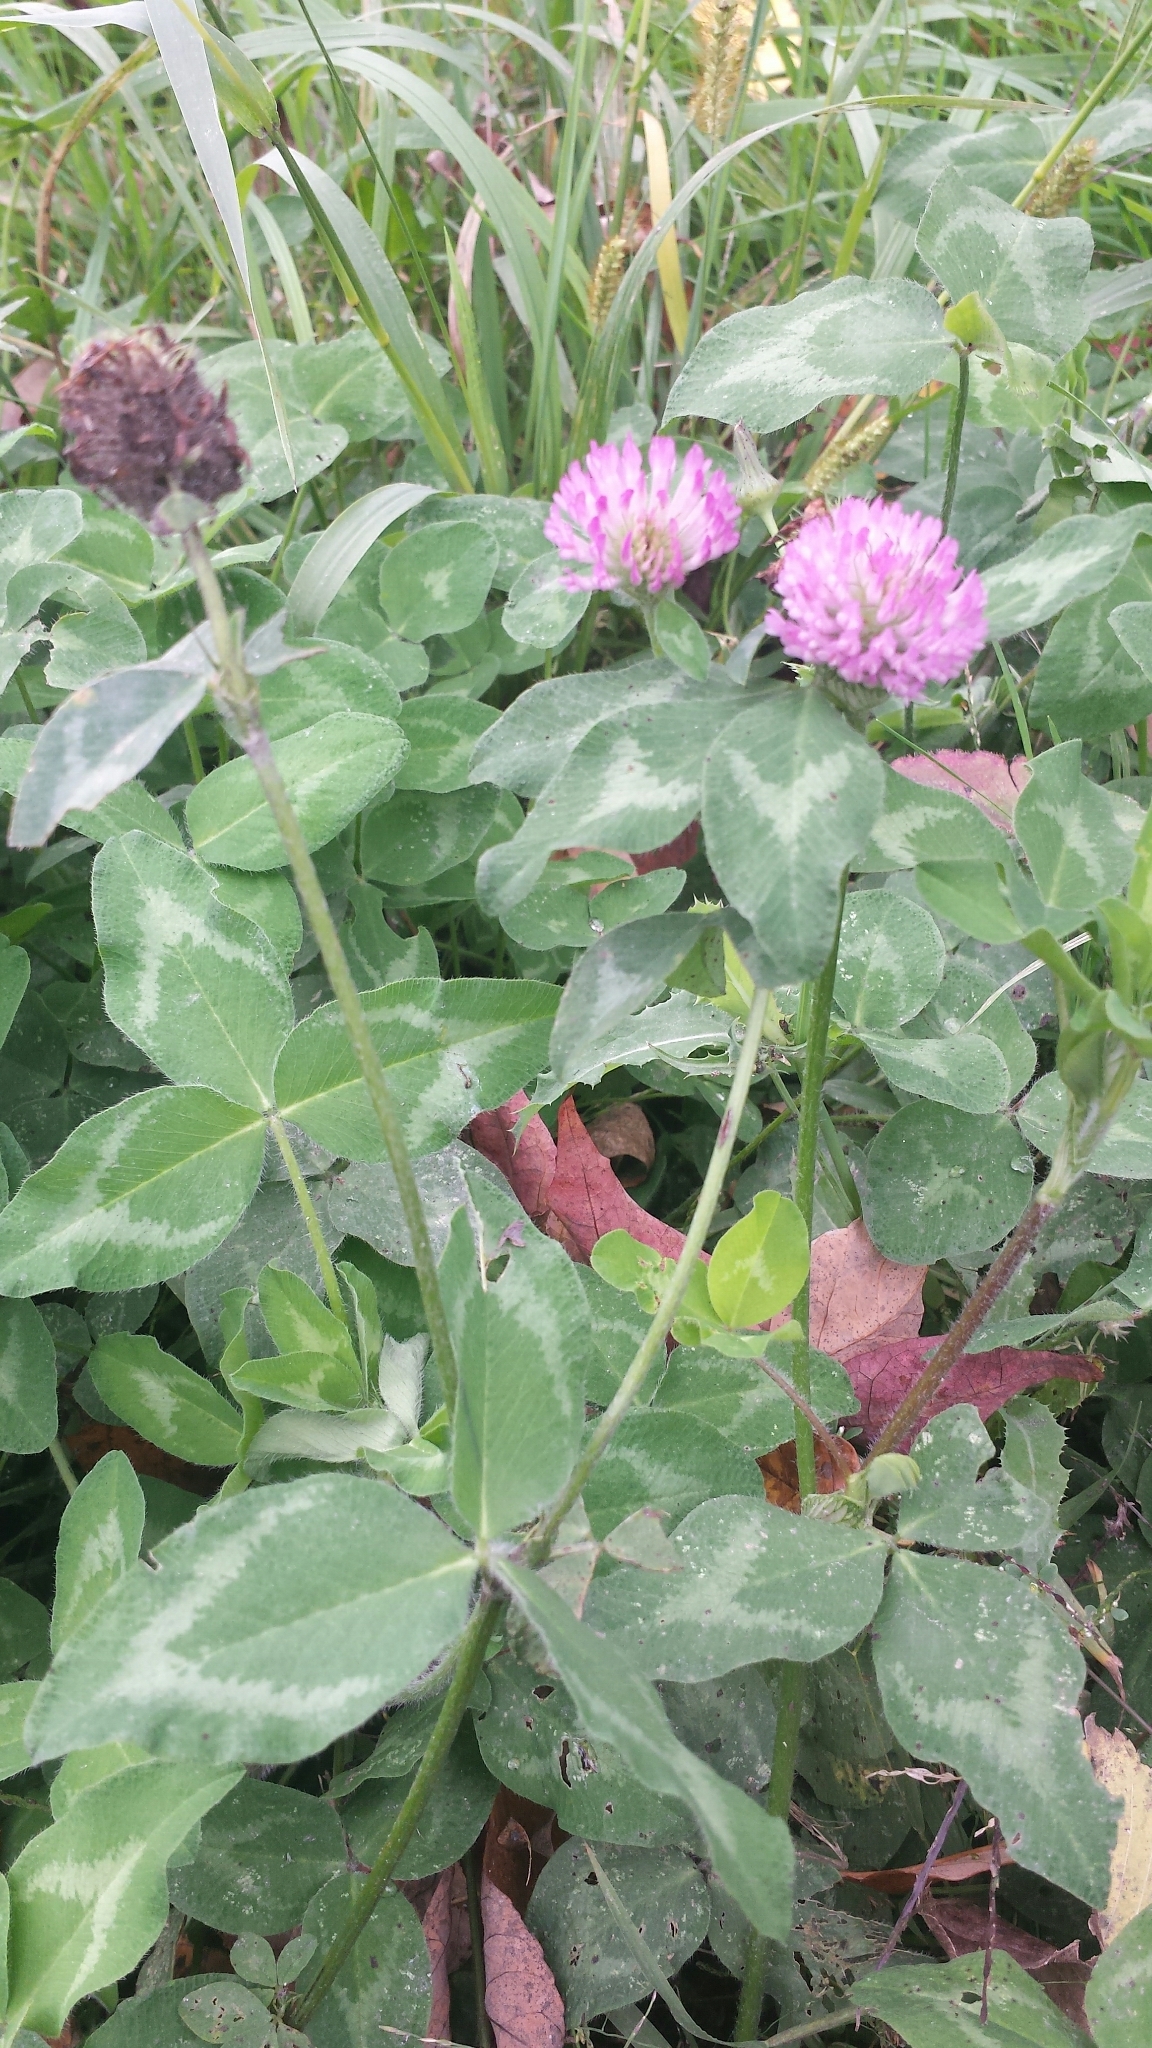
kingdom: Plantae
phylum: Tracheophyta
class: Magnoliopsida
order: Fabales
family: Fabaceae
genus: Trifolium
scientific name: Trifolium pratense
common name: Red clover
